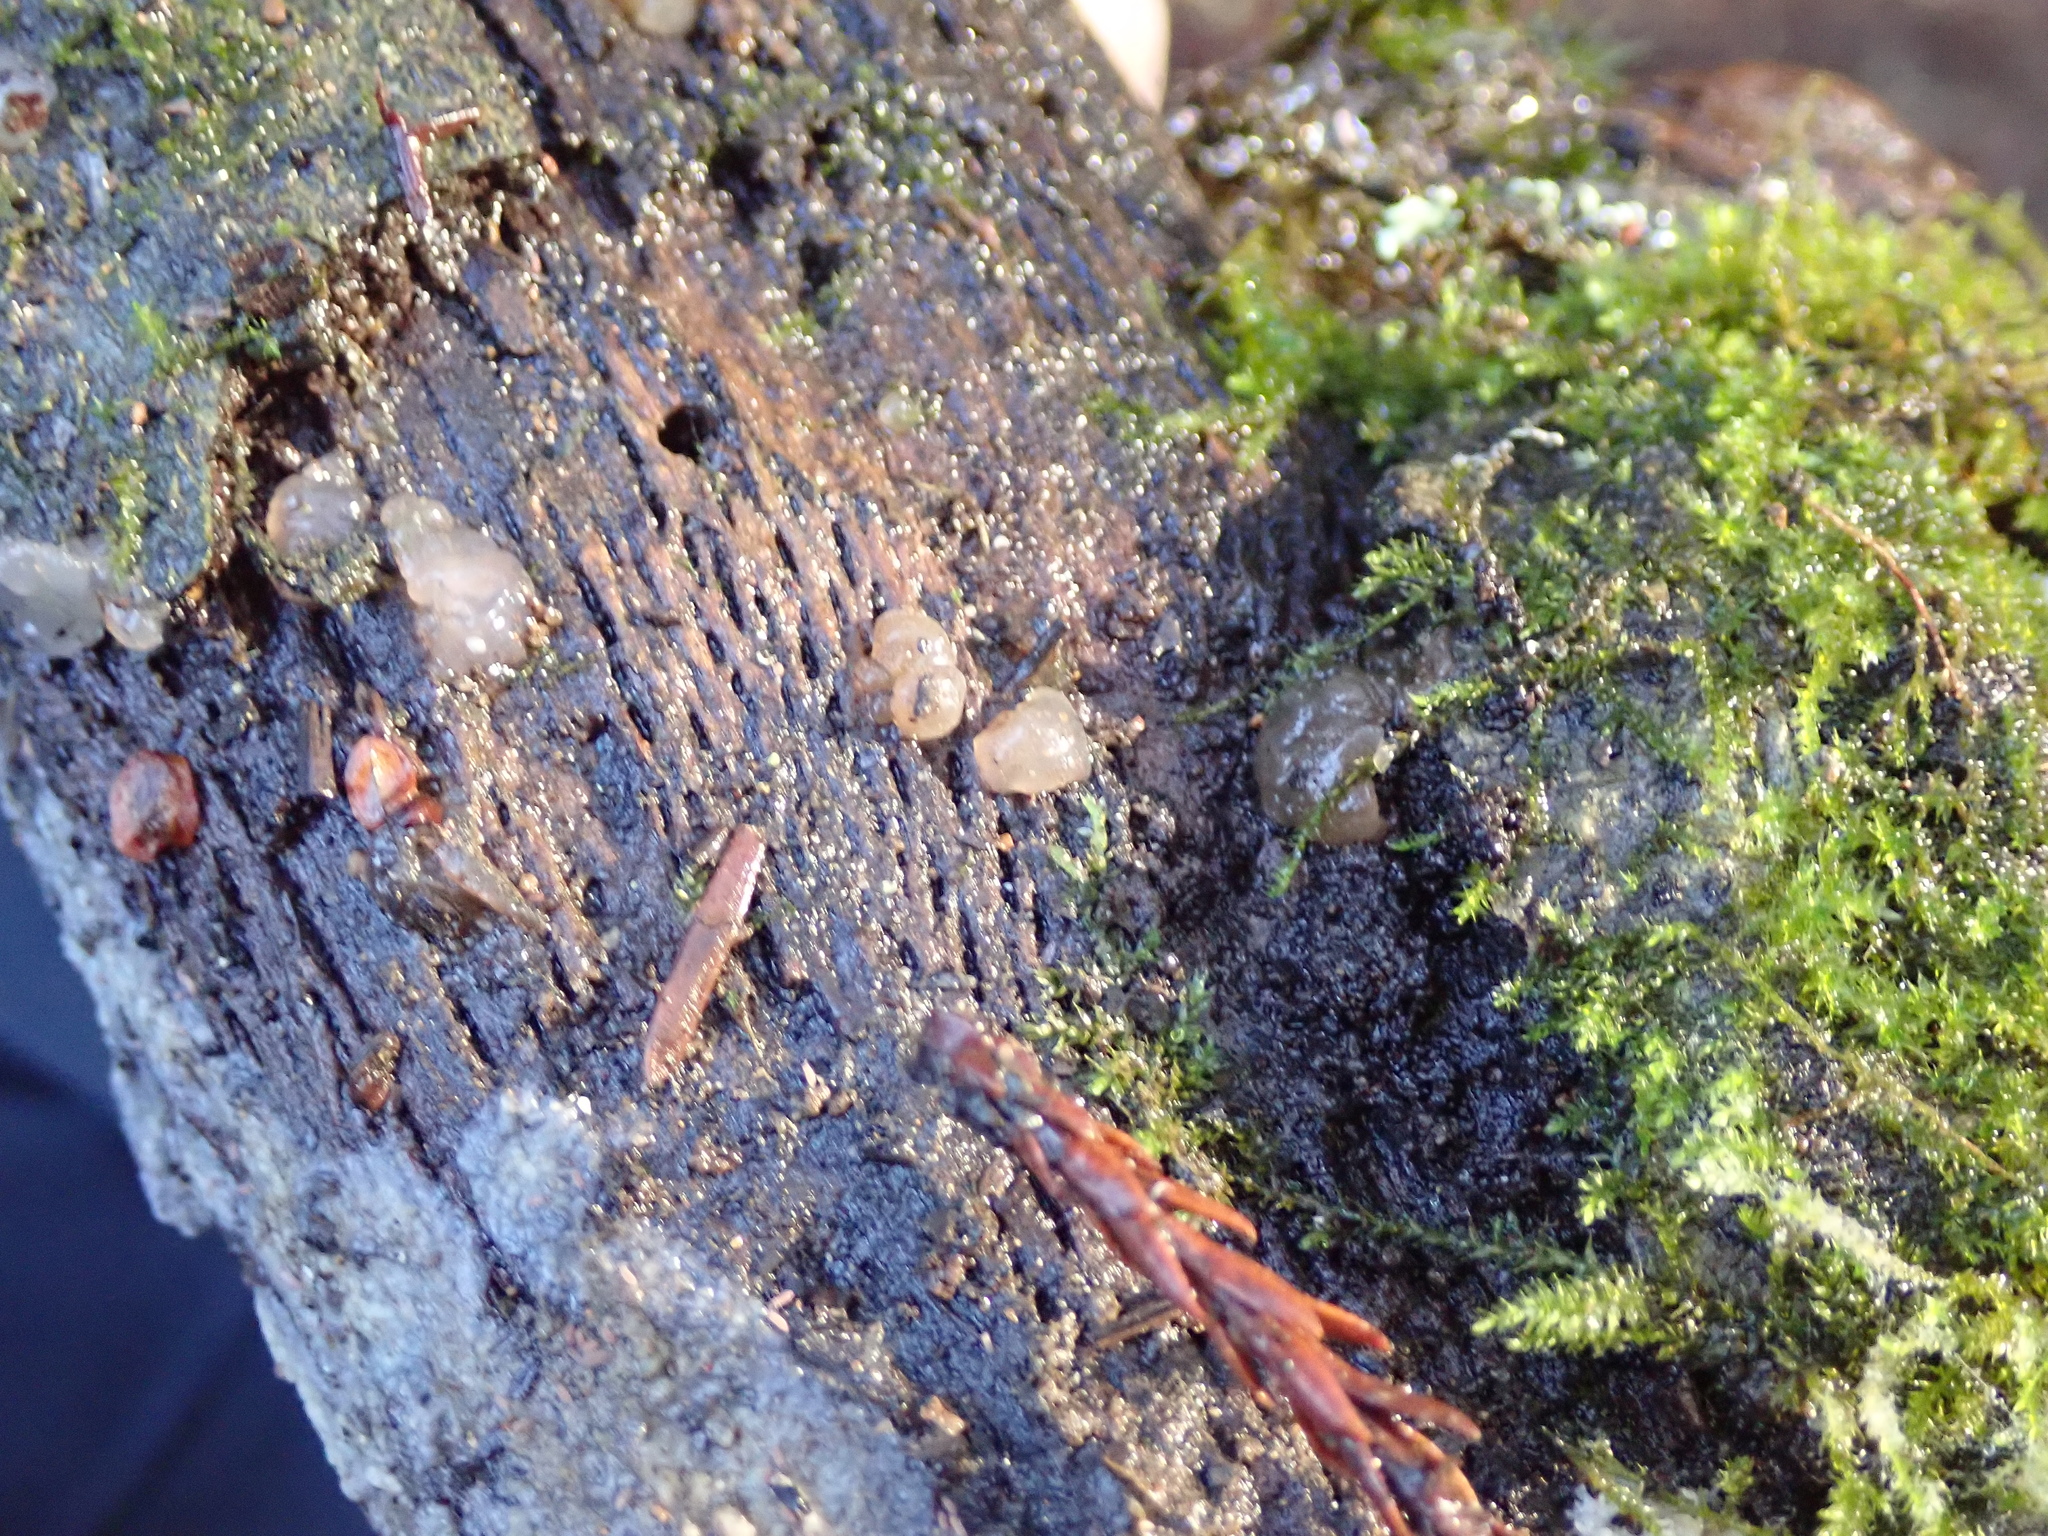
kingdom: Fungi
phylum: Basidiomycota
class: Agaricomycetes
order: Auriculariales
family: Hyaloriaceae
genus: Myxarium
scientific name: Myxarium nucleatum
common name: Crystal brain fungus
